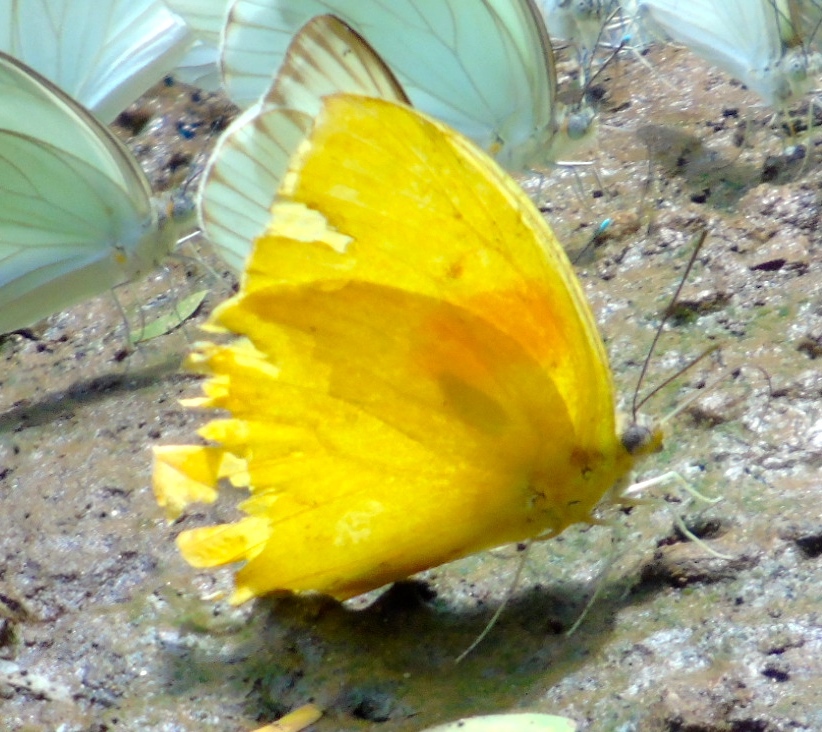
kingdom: Animalia
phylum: Arthropoda
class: Insecta
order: Lepidoptera
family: Pieridae
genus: Phoebis
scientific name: Phoebis philea
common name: Orange-barred giant sulphur
